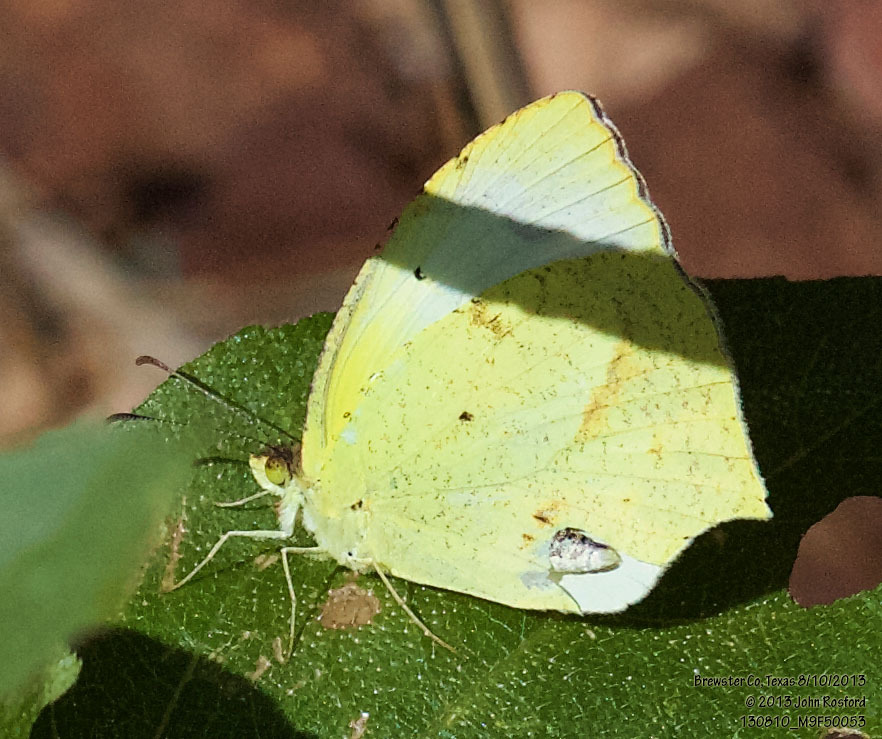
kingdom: Animalia
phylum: Arthropoda
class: Insecta
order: Lepidoptera
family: Pieridae
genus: Abaeis
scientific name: Abaeis mexicana
